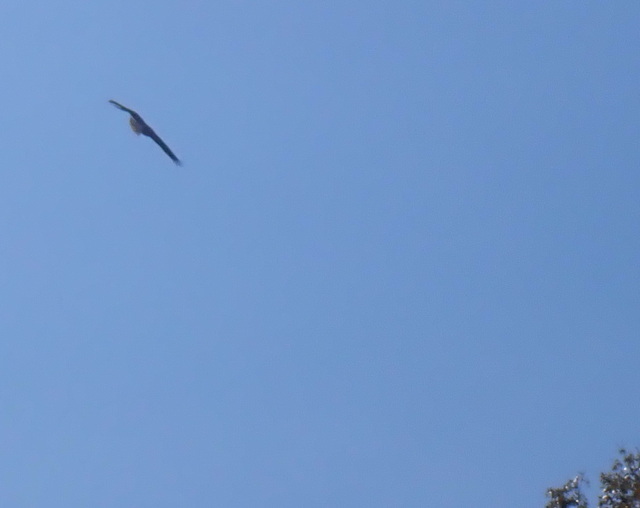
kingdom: Animalia
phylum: Chordata
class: Aves
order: Accipitriformes
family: Accipitridae
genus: Haliaeetus
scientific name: Haliaeetus leucocephalus
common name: Bald eagle
